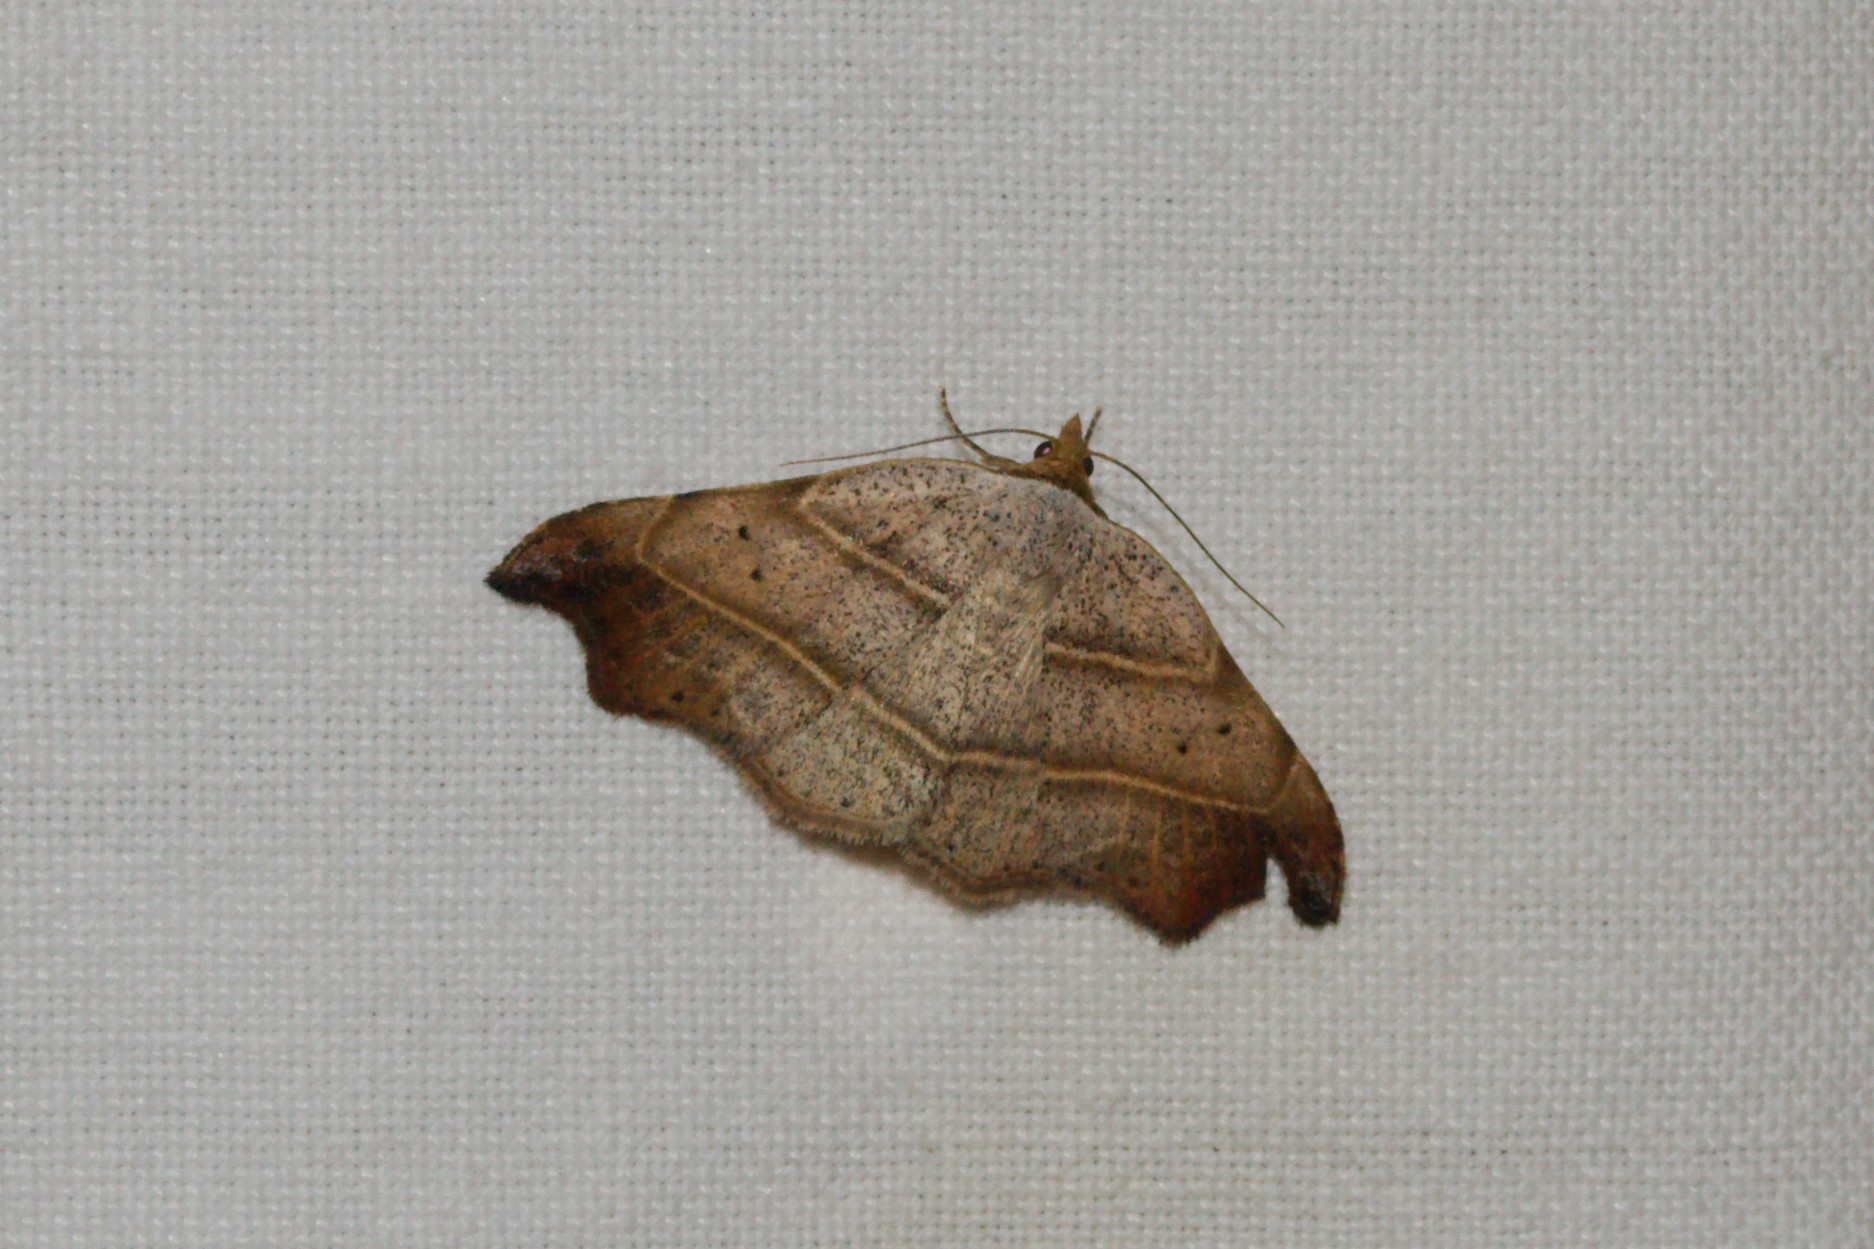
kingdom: Animalia
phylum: Arthropoda
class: Insecta
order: Lepidoptera
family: Erebidae
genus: Laspeyria
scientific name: Laspeyria flexula
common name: Beautiful hook-tip
